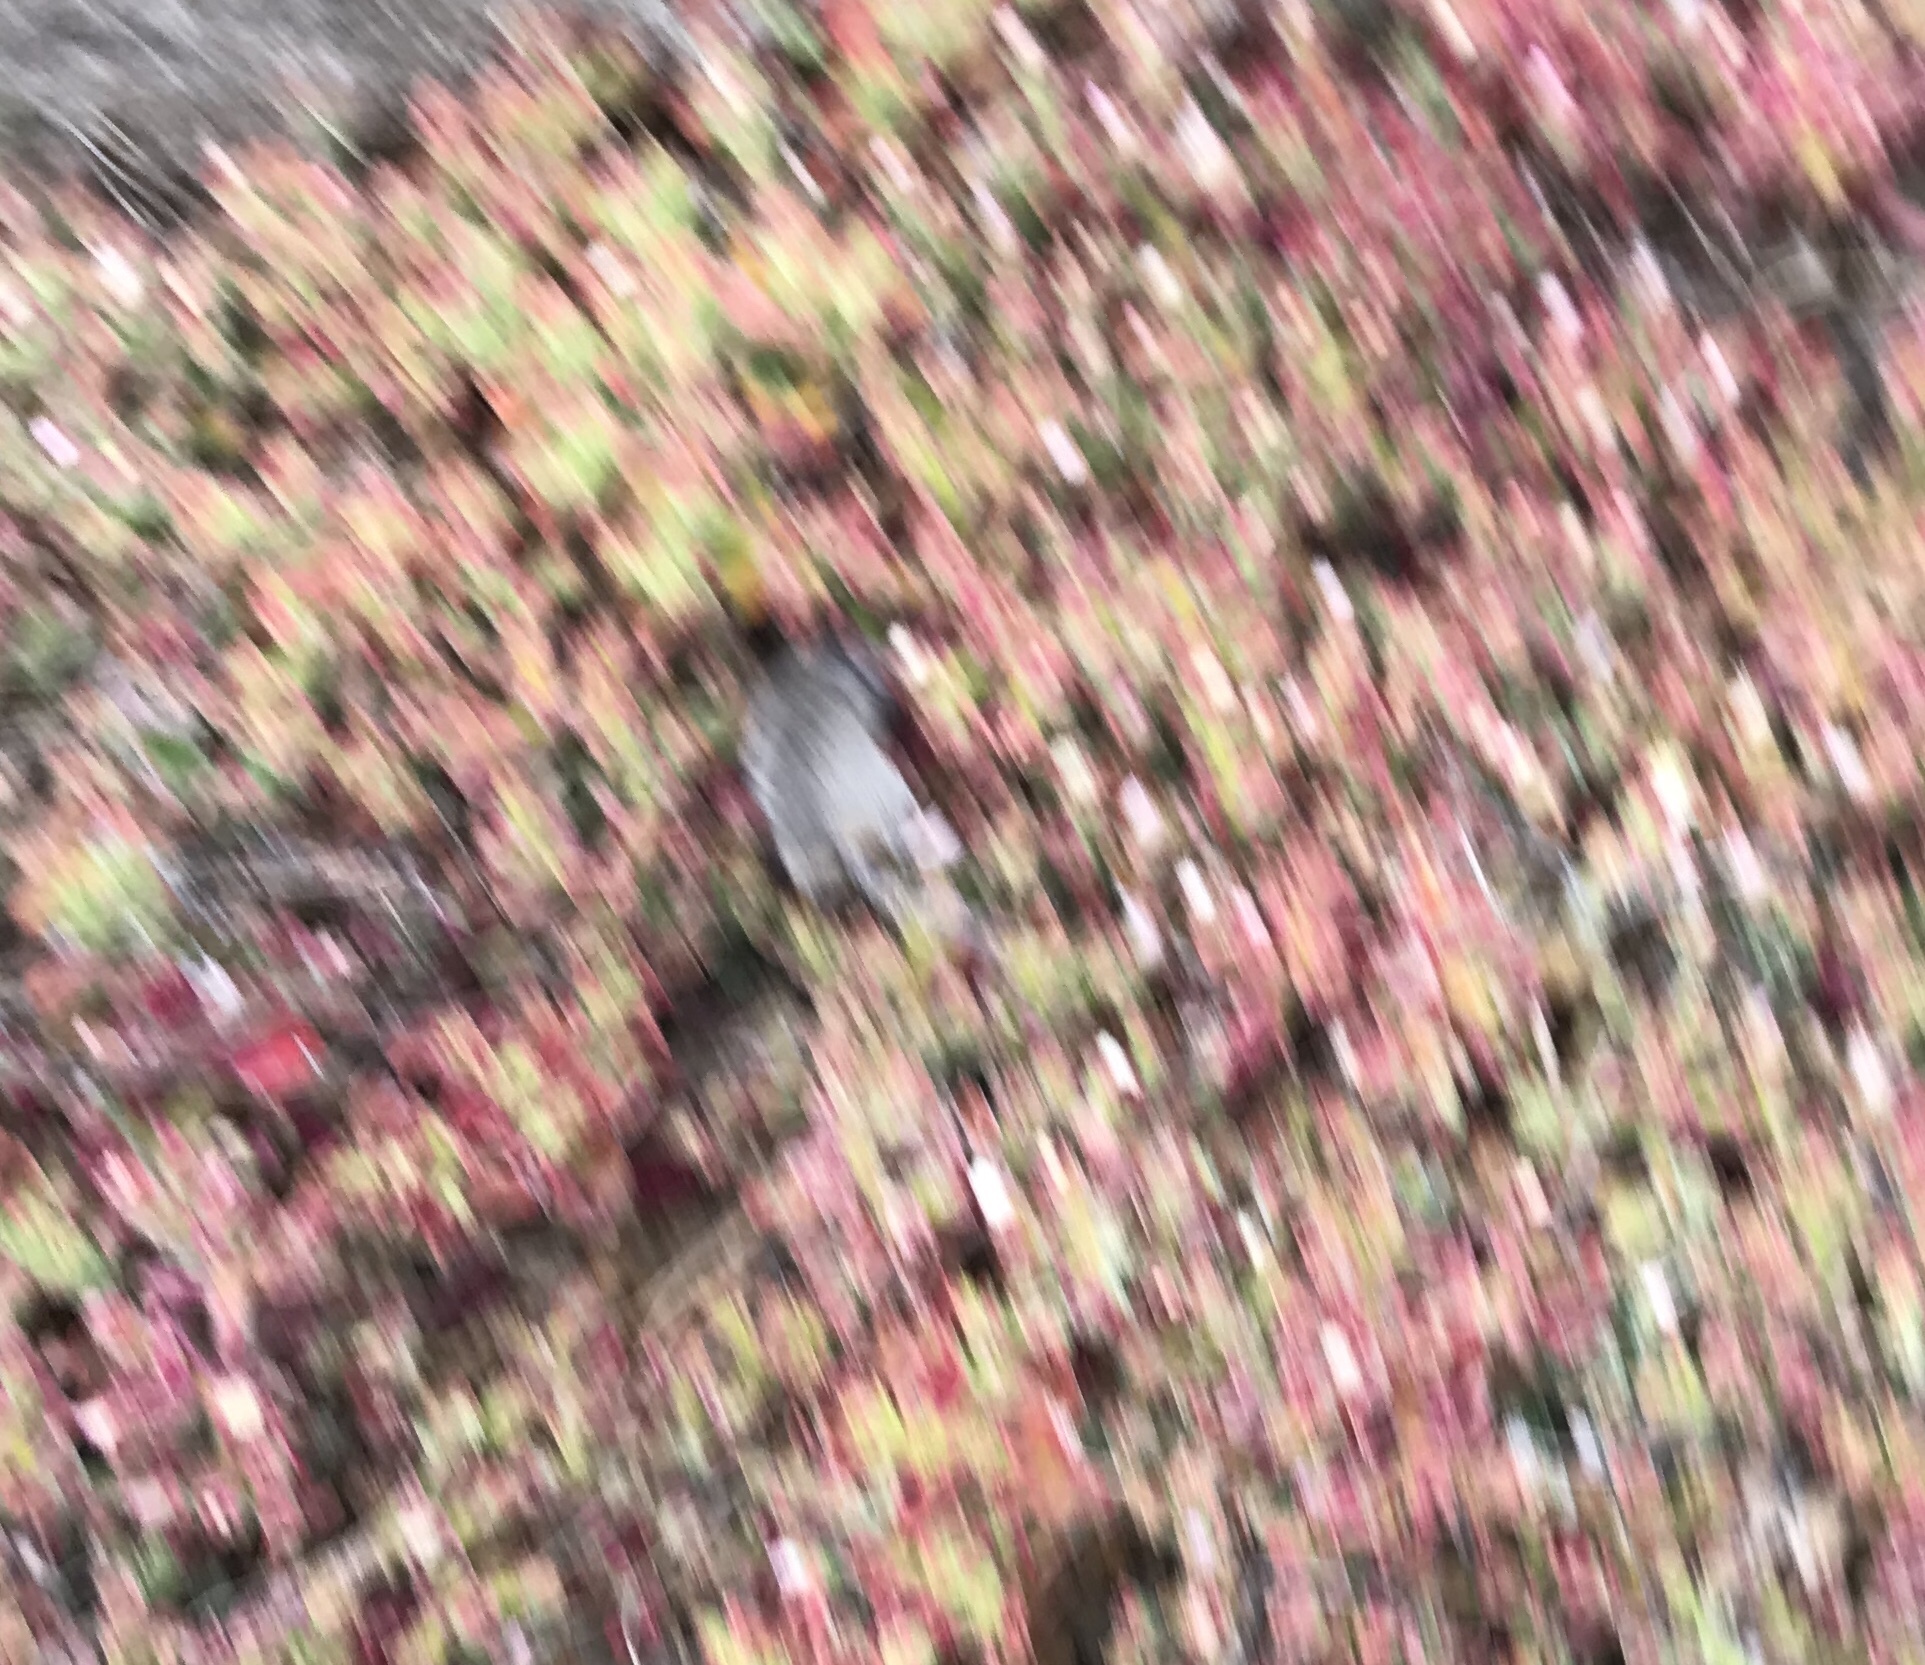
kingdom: Animalia
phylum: Chordata
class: Mammalia
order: Rodentia
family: Cricetidae
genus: Peromyscus
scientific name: Peromyscus maniculatus
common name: Deer mouse
